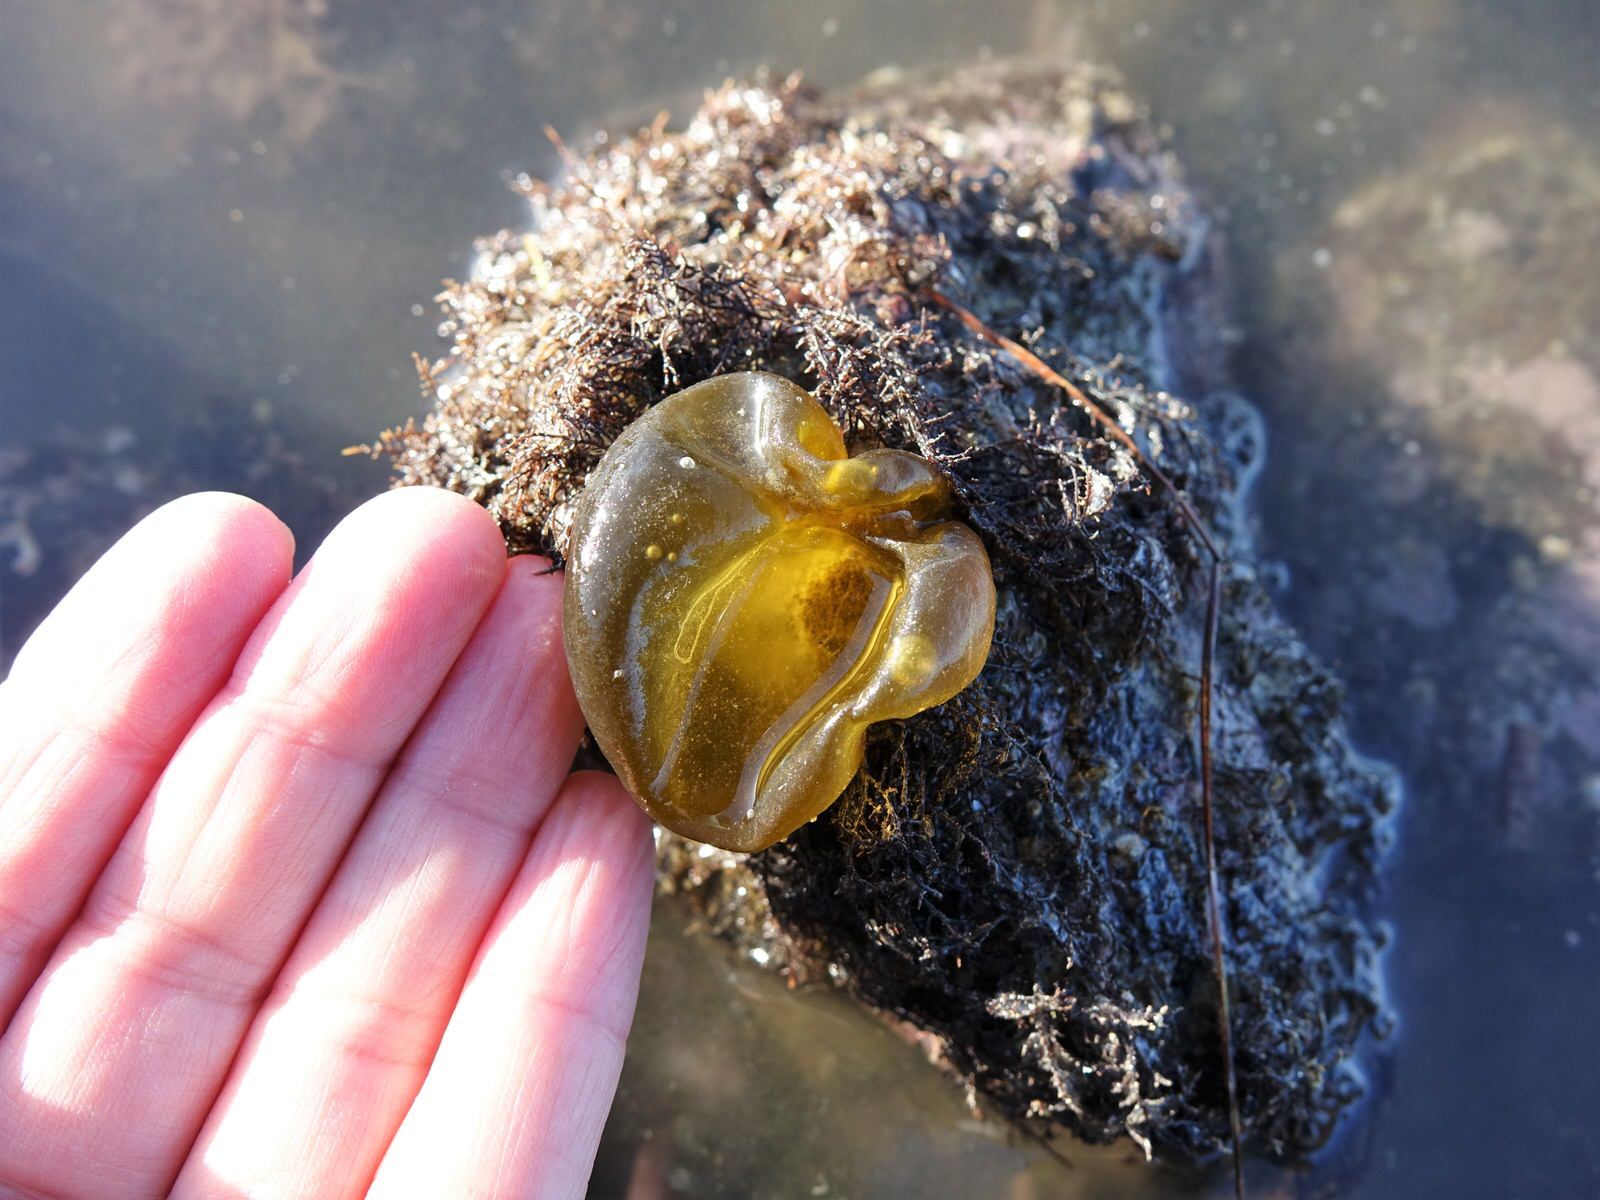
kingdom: Chromista
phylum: Ochrophyta
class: Phaeophyceae
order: Scytosiphonales
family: Scytosiphonaceae
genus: Colpomenia
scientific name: Colpomenia peregrina
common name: Oyster thief
